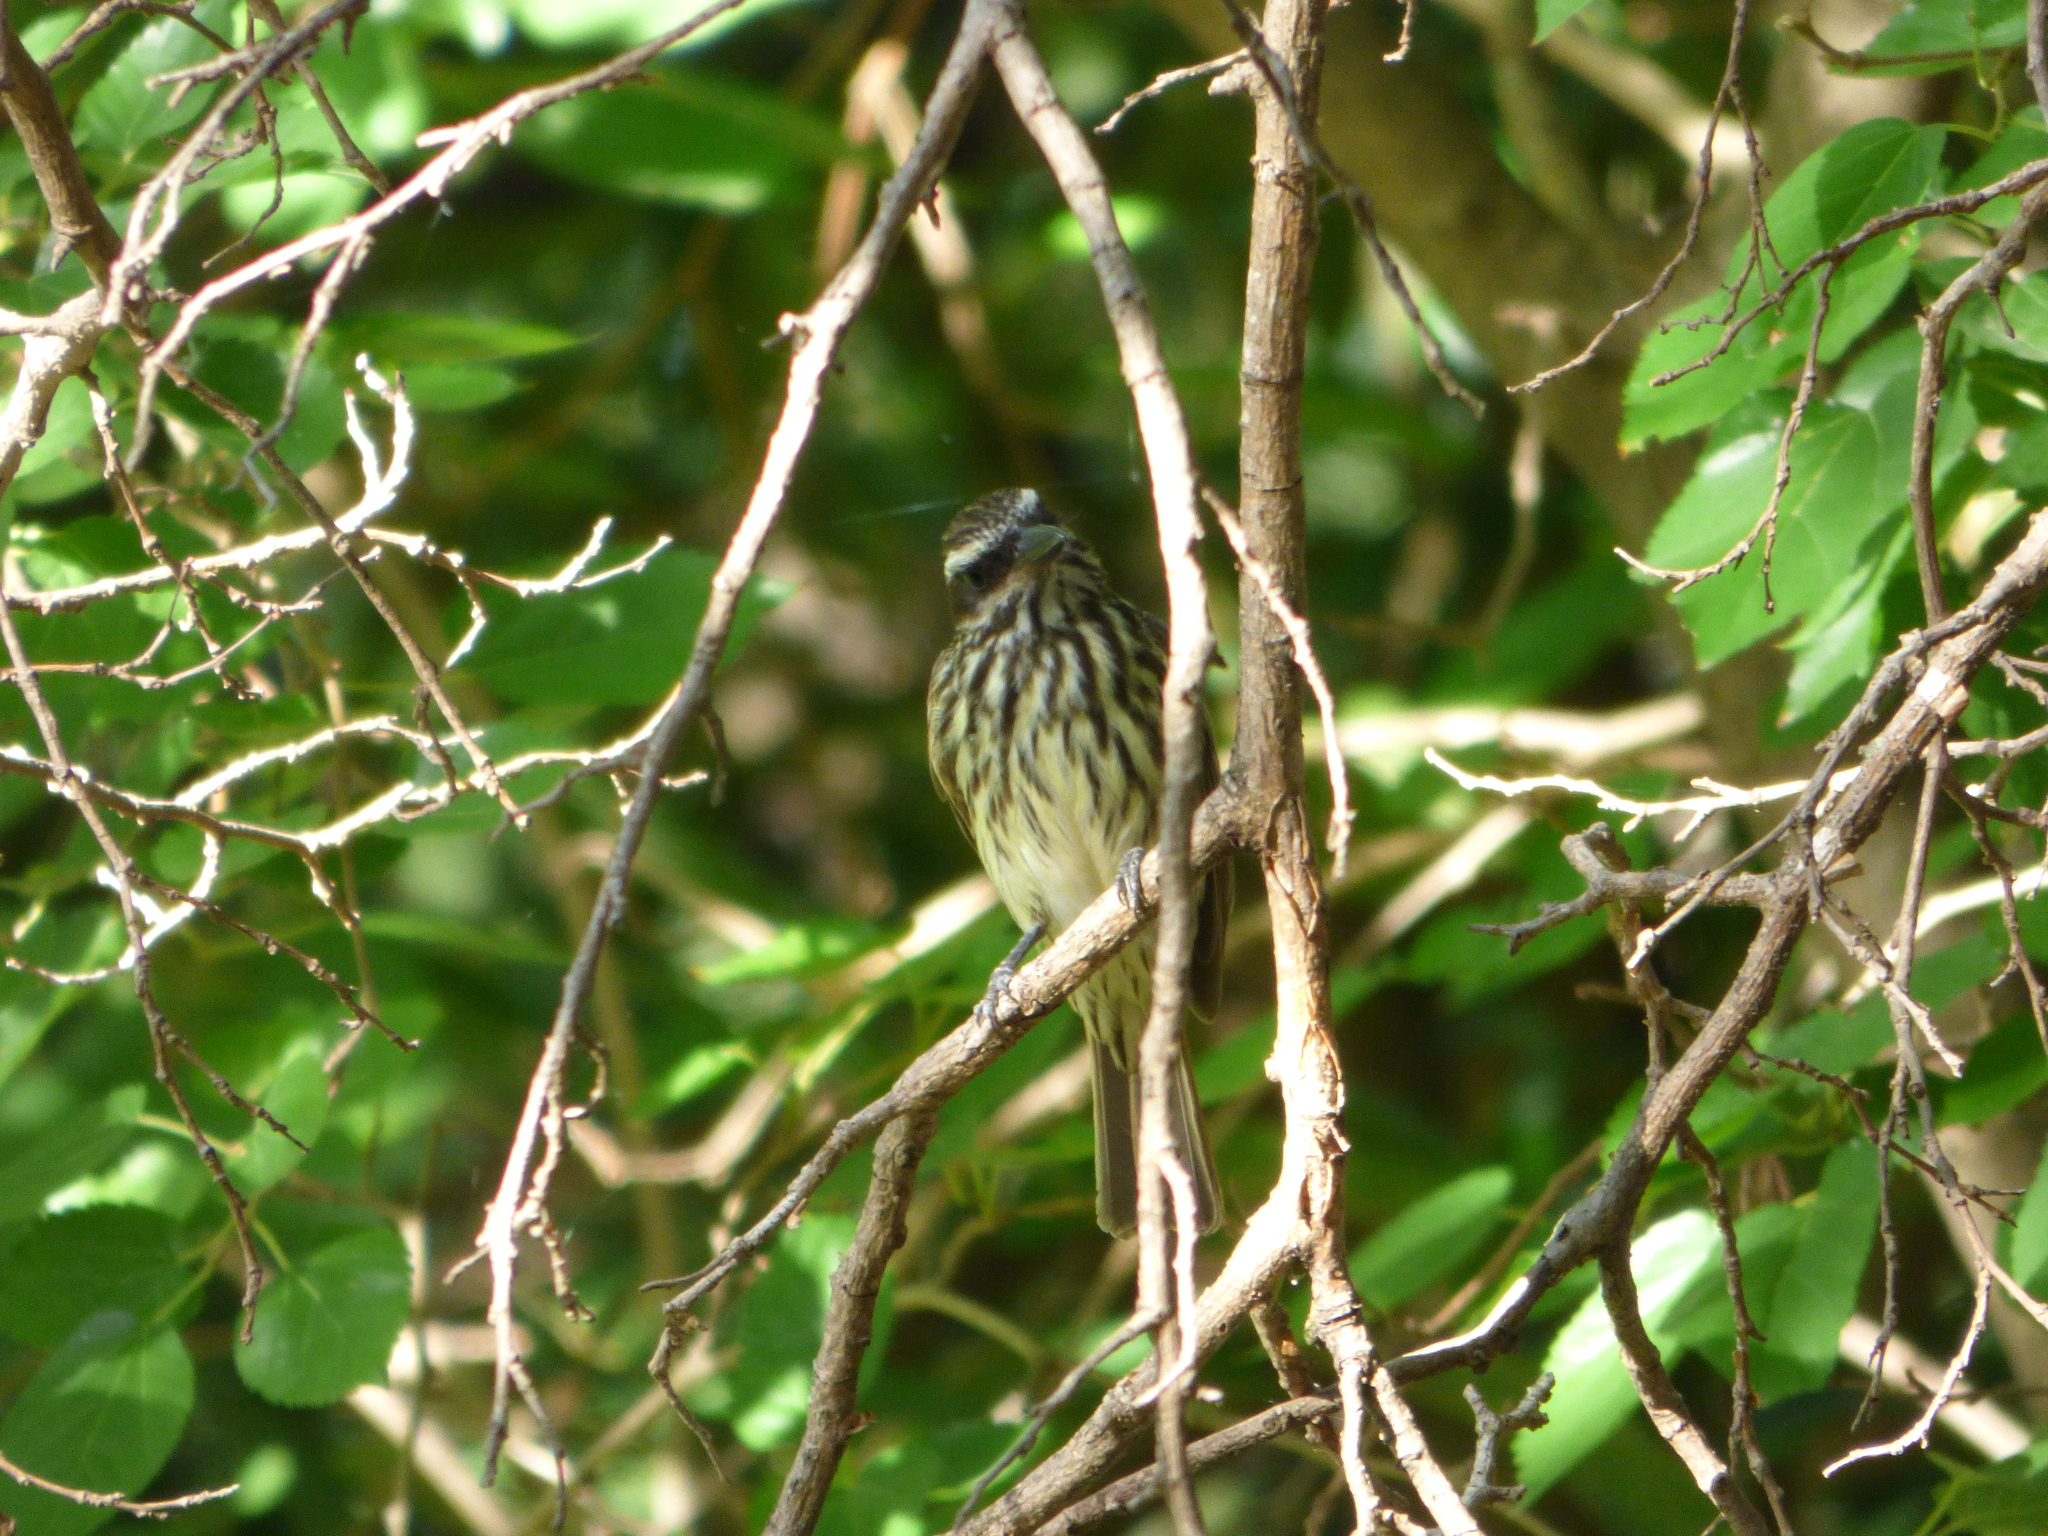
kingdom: Animalia
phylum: Chordata
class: Aves
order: Passeriformes
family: Tyrannidae
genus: Myiodynastes
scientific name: Myiodynastes maculatus
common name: Streaked flycatcher
